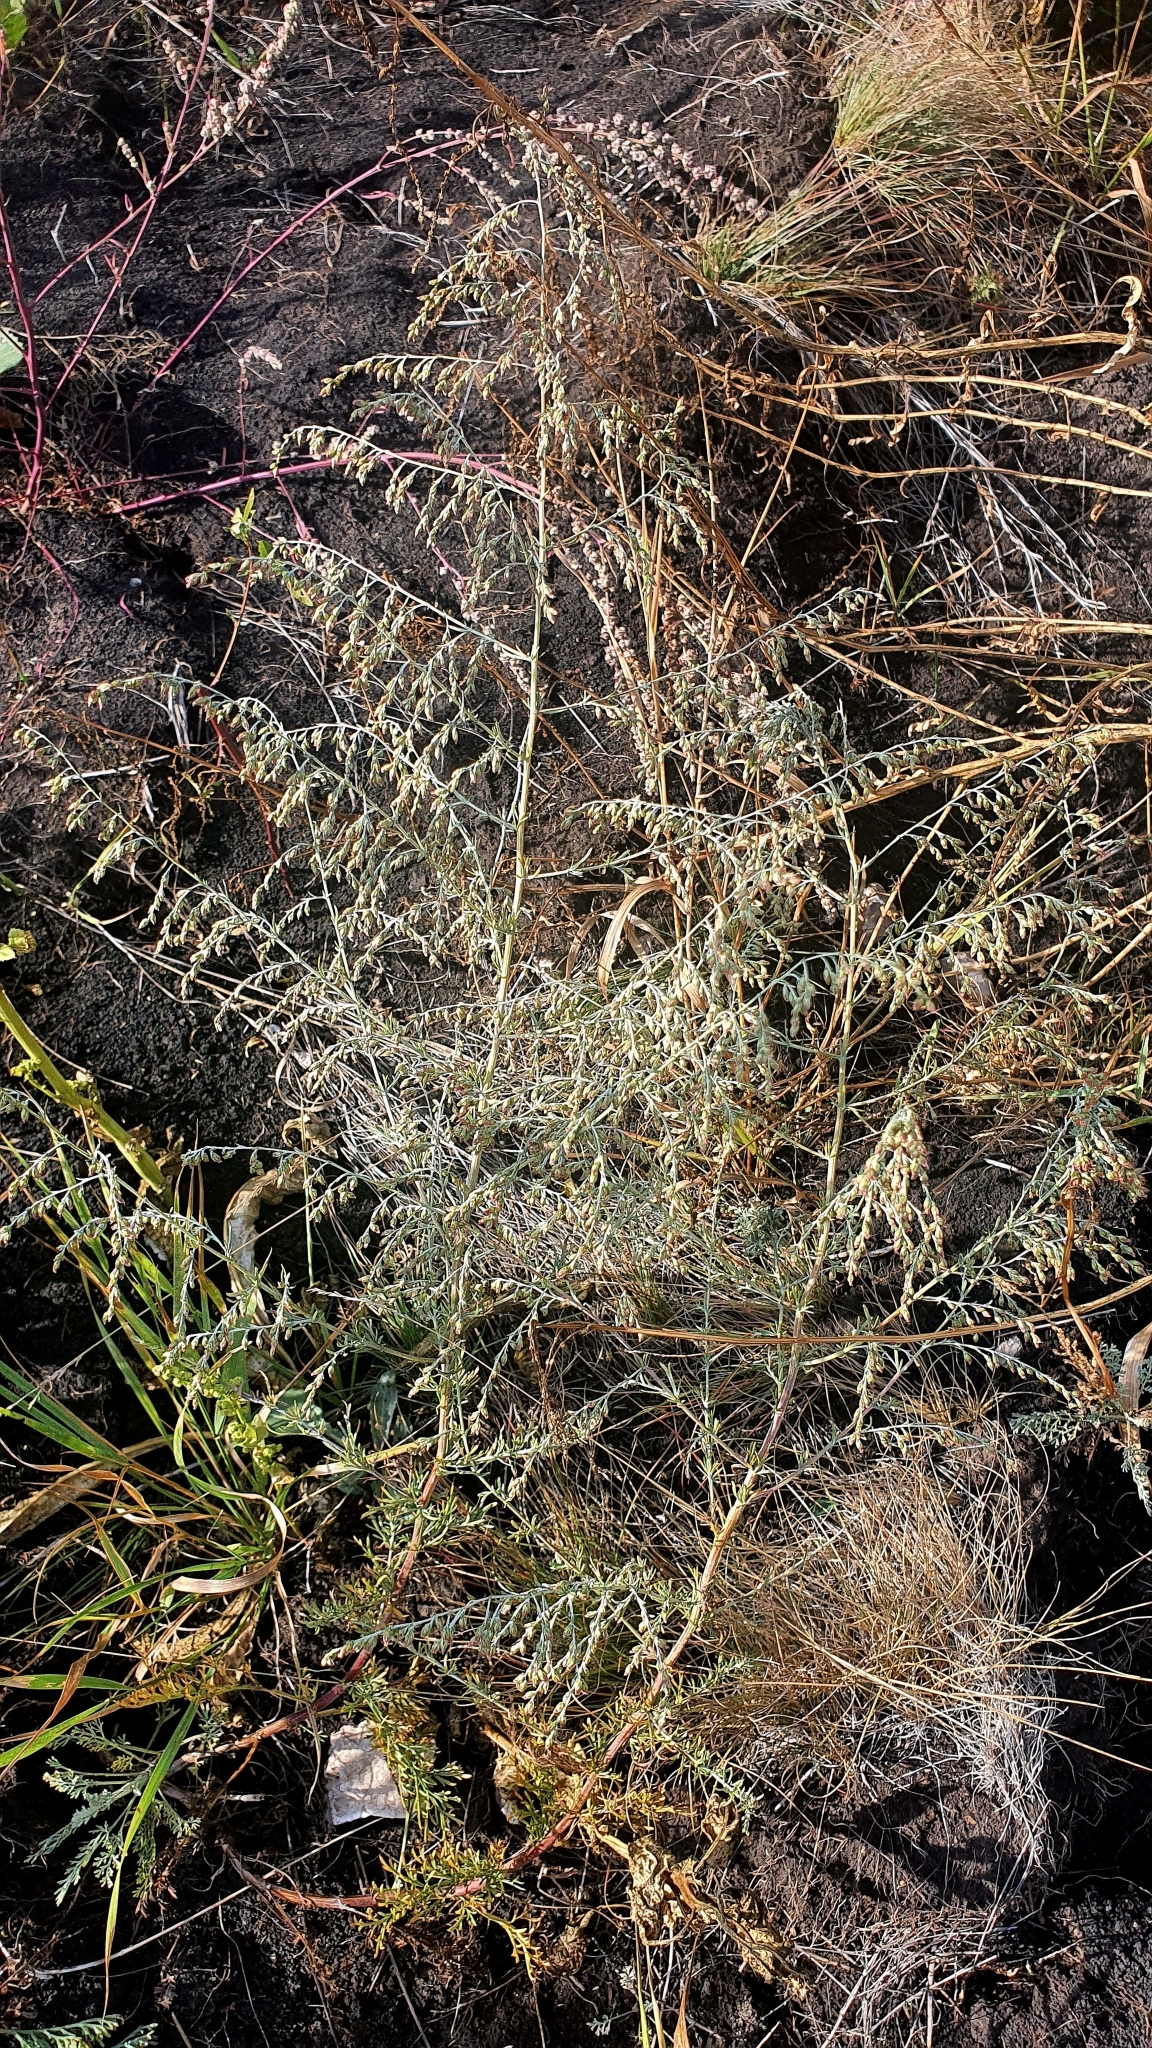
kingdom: Plantae
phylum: Tracheophyta
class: Magnoliopsida
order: Asterales
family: Asteraceae
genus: Artemisia
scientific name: Artemisia santonicum
